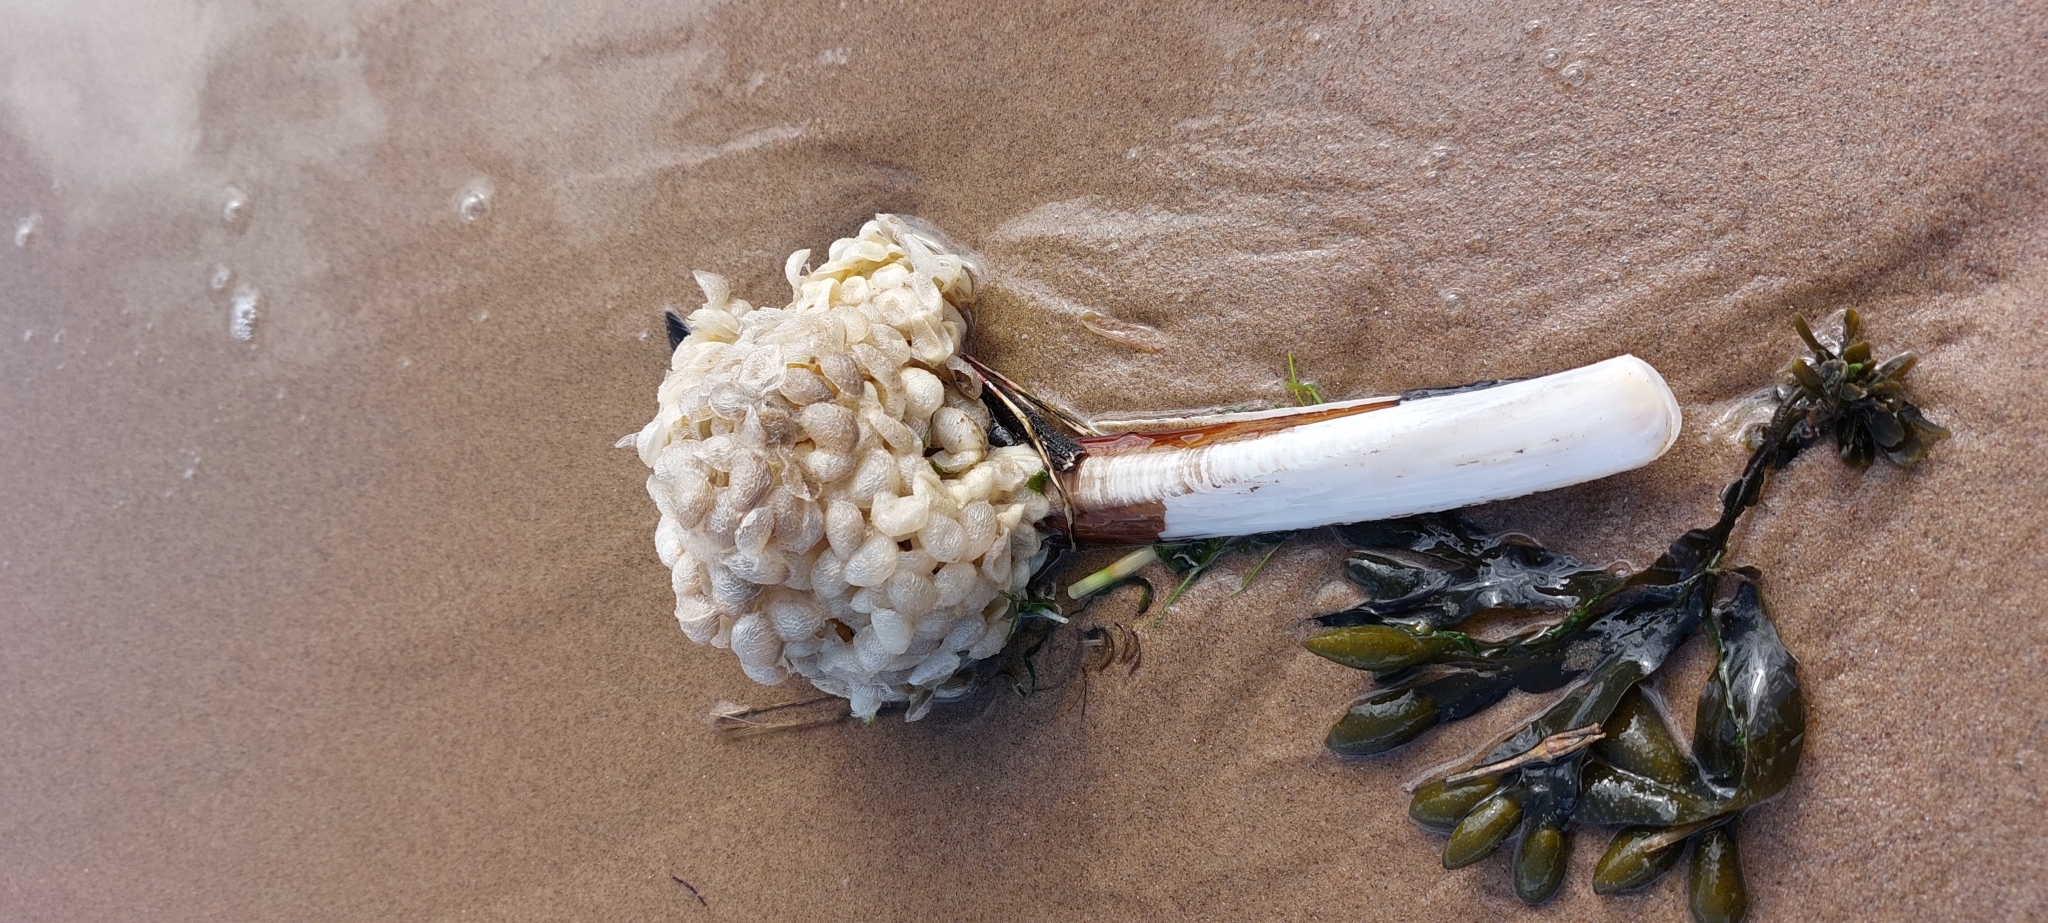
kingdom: Animalia
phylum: Mollusca
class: Gastropoda
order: Neogastropoda
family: Buccinidae
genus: Buccinum
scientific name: Buccinum undatum
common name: Common whelk
